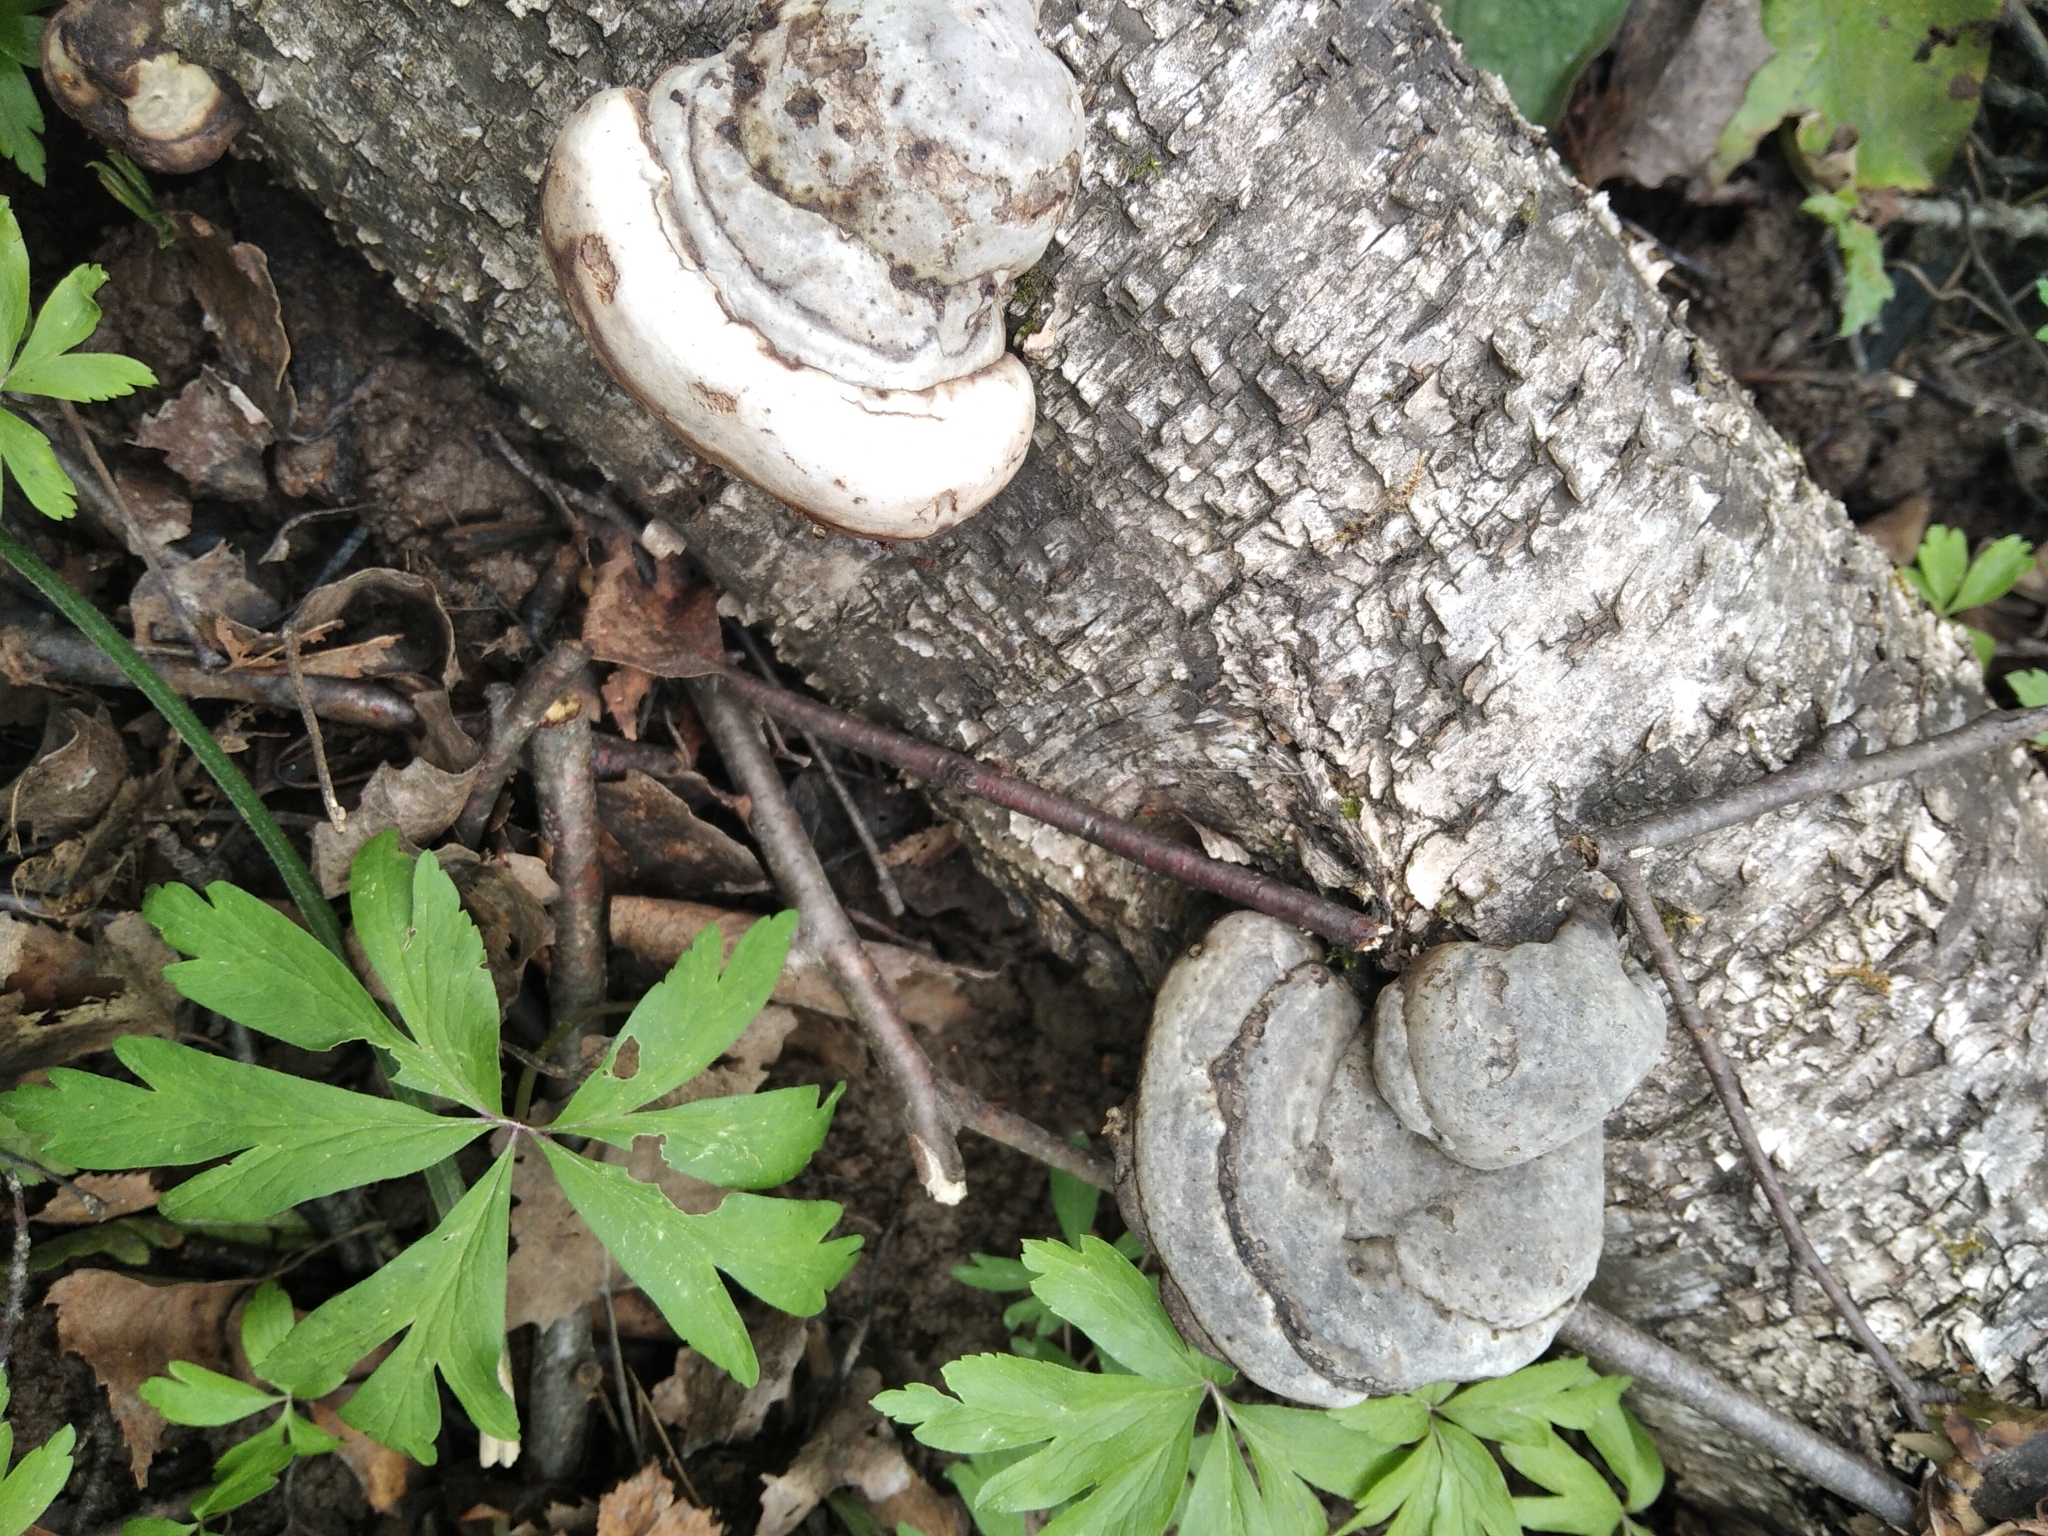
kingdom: Fungi
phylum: Basidiomycota
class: Agaricomycetes
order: Polyporales
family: Polyporaceae
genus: Fomes
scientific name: Fomes fomentarius
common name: Hoof fungus
